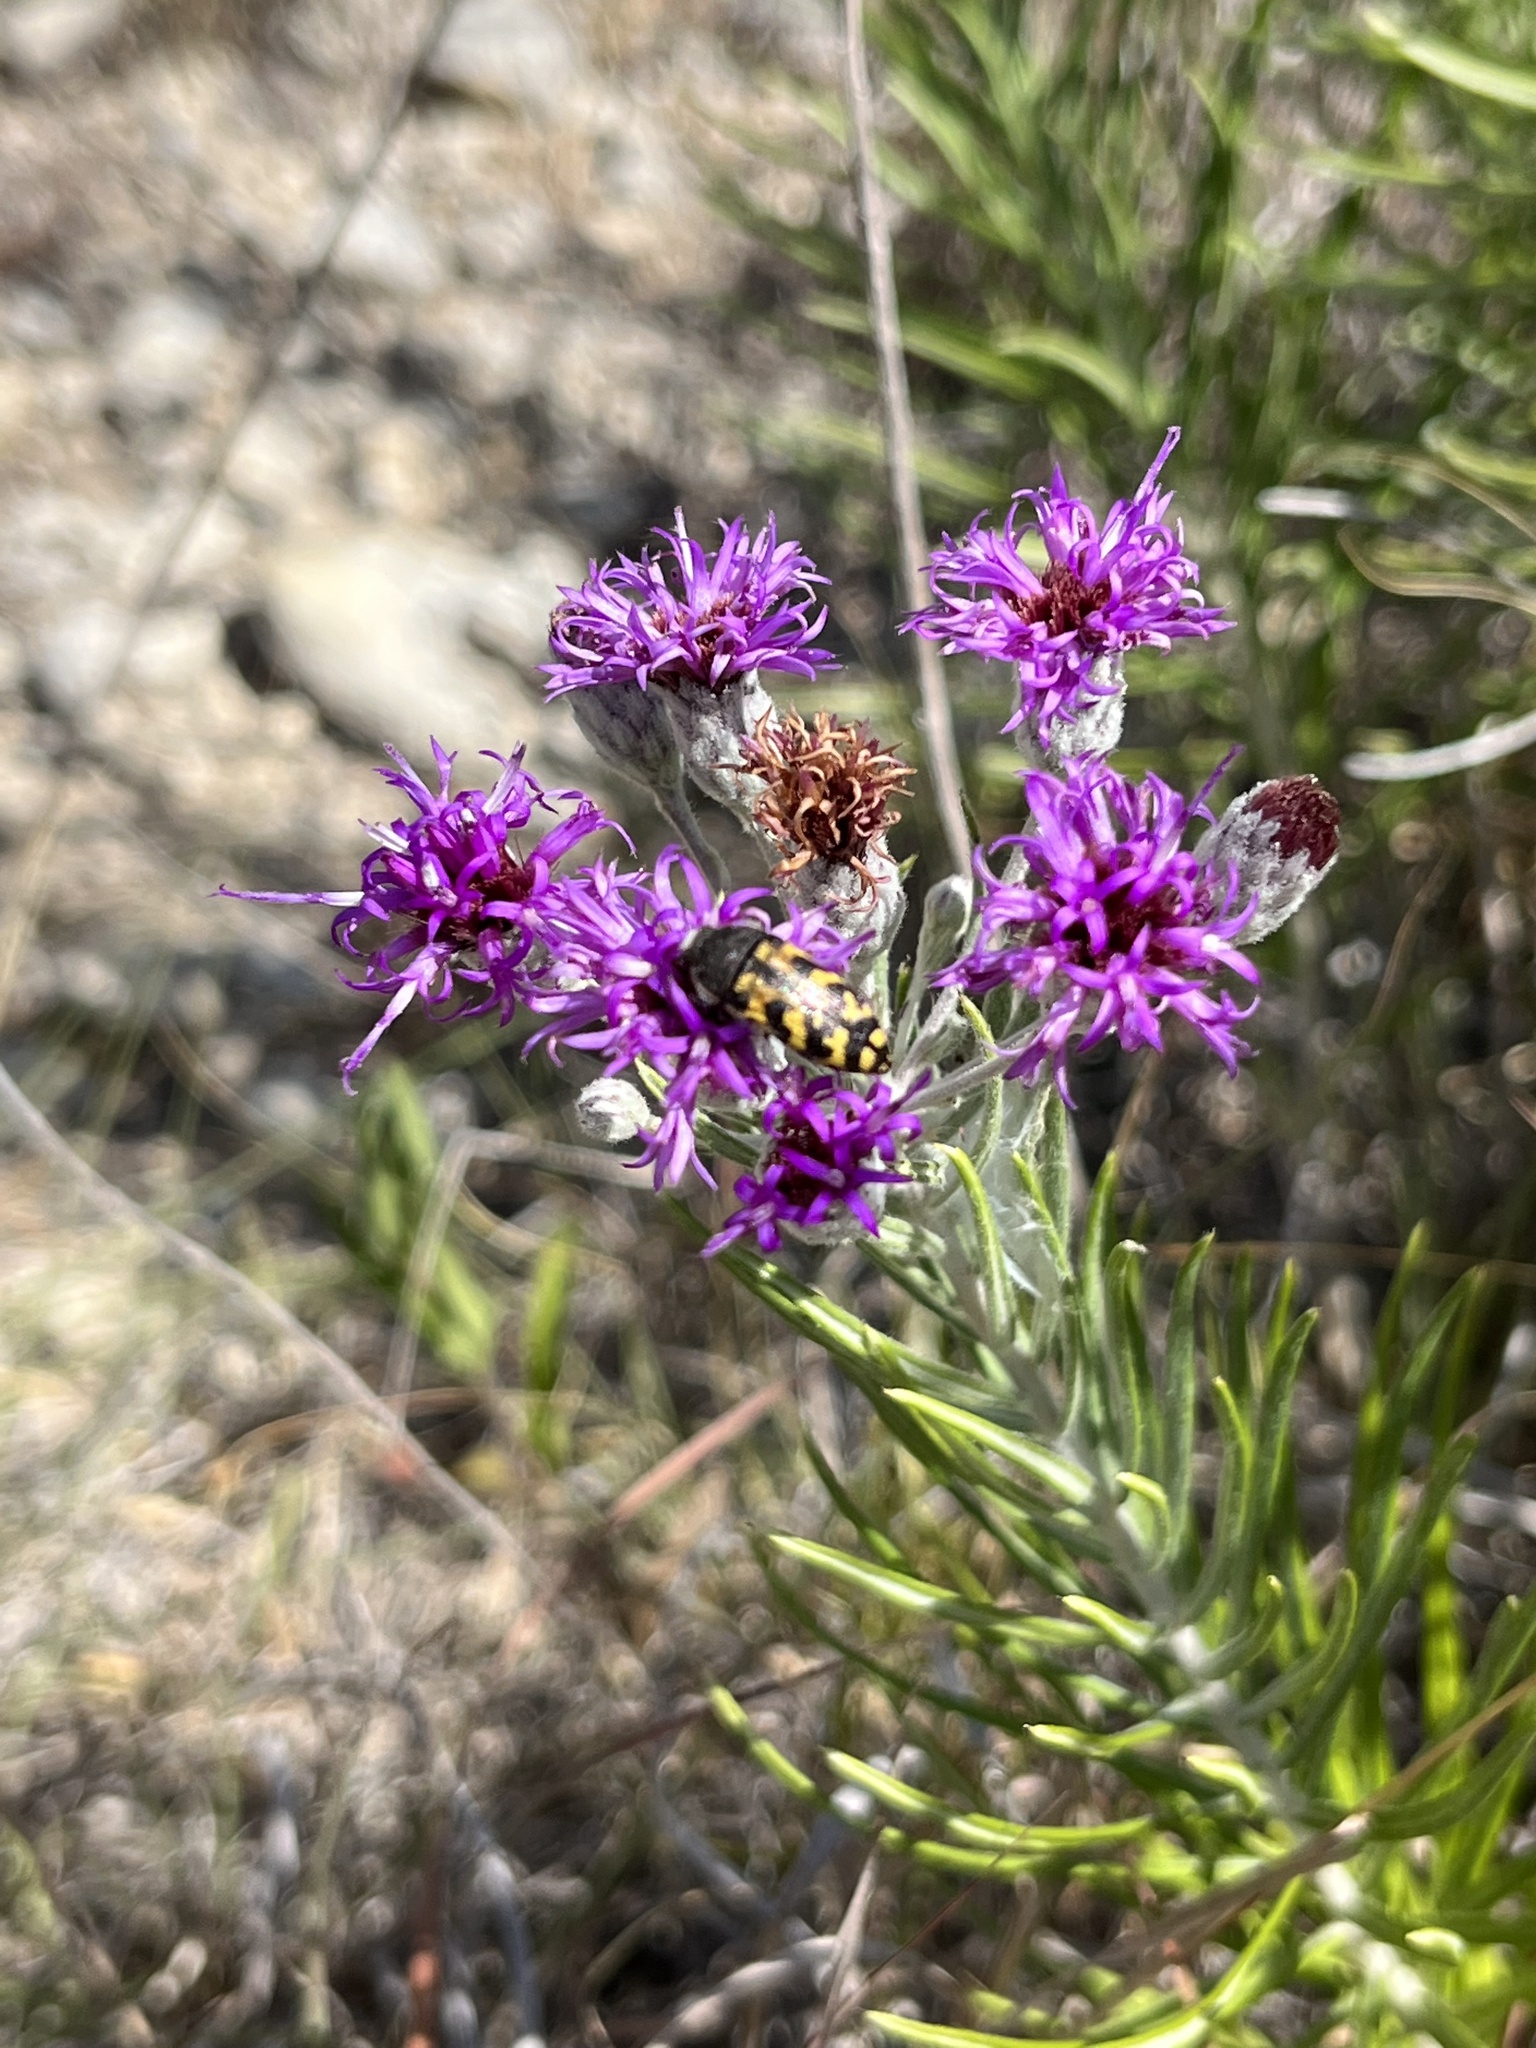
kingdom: Animalia
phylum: Arthropoda
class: Insecta
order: Coleoptera
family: Buprestidae
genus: Acmaeodera
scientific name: Acmaeodera mixta
